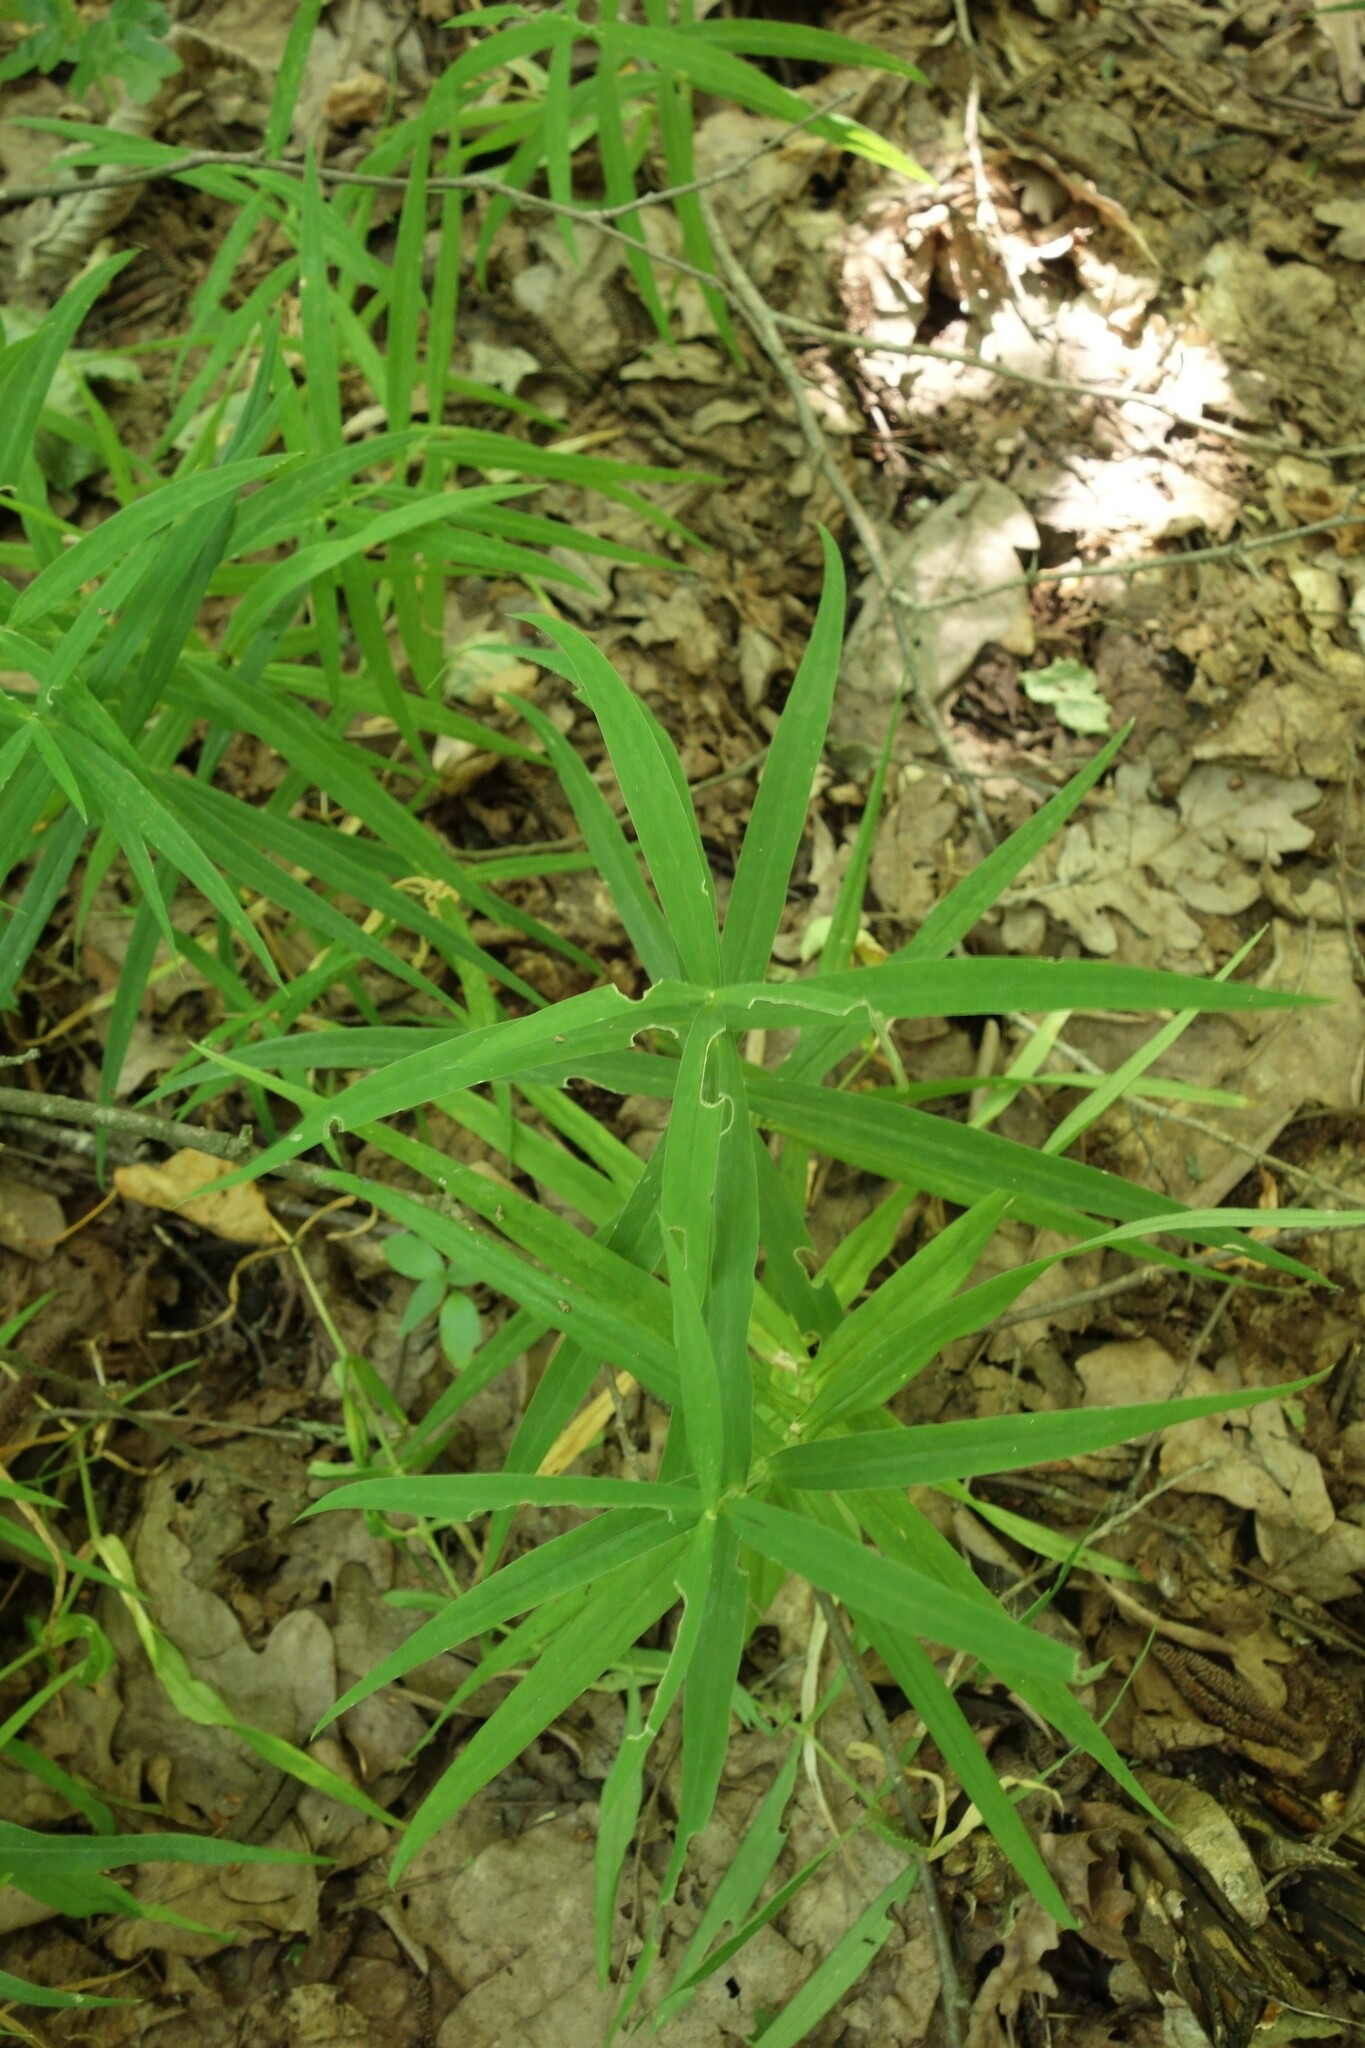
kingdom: Plantae
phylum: Tracheophyta
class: Magnoliopsida
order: Caryophyllales
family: Caryophyllaceae
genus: Rabelera
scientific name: Rabelera holostea
